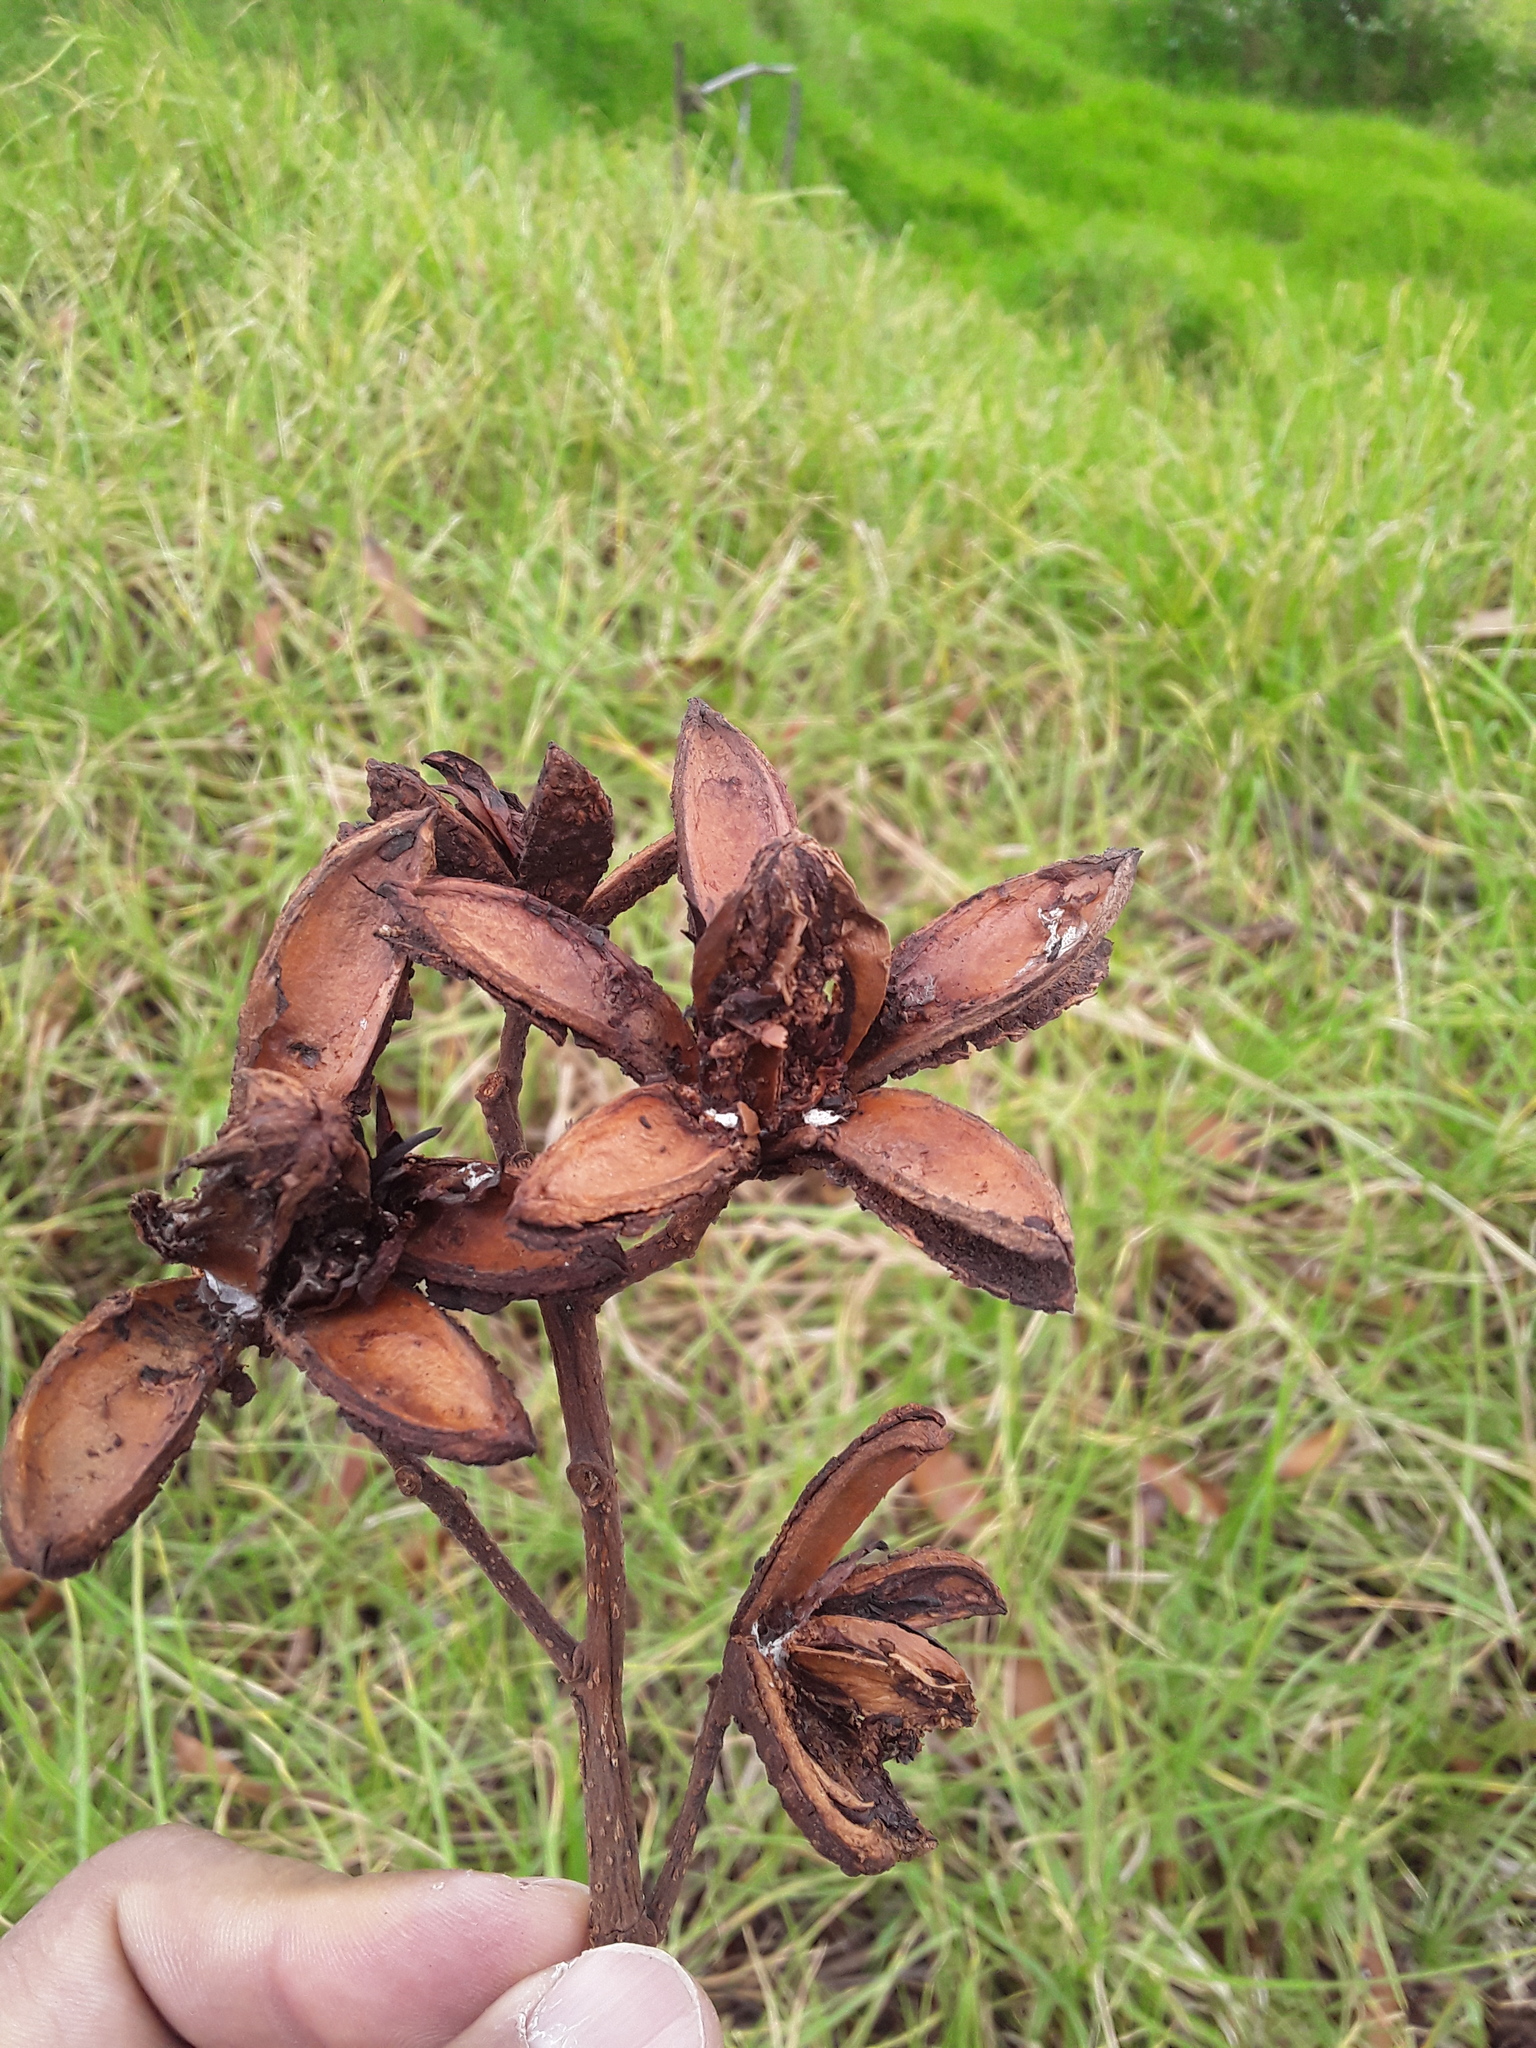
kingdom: Plantae
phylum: Tracheophyta
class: Magnoliopsida
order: Sapindales
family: Meliaceae
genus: Cedrela
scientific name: Cedrela montana
